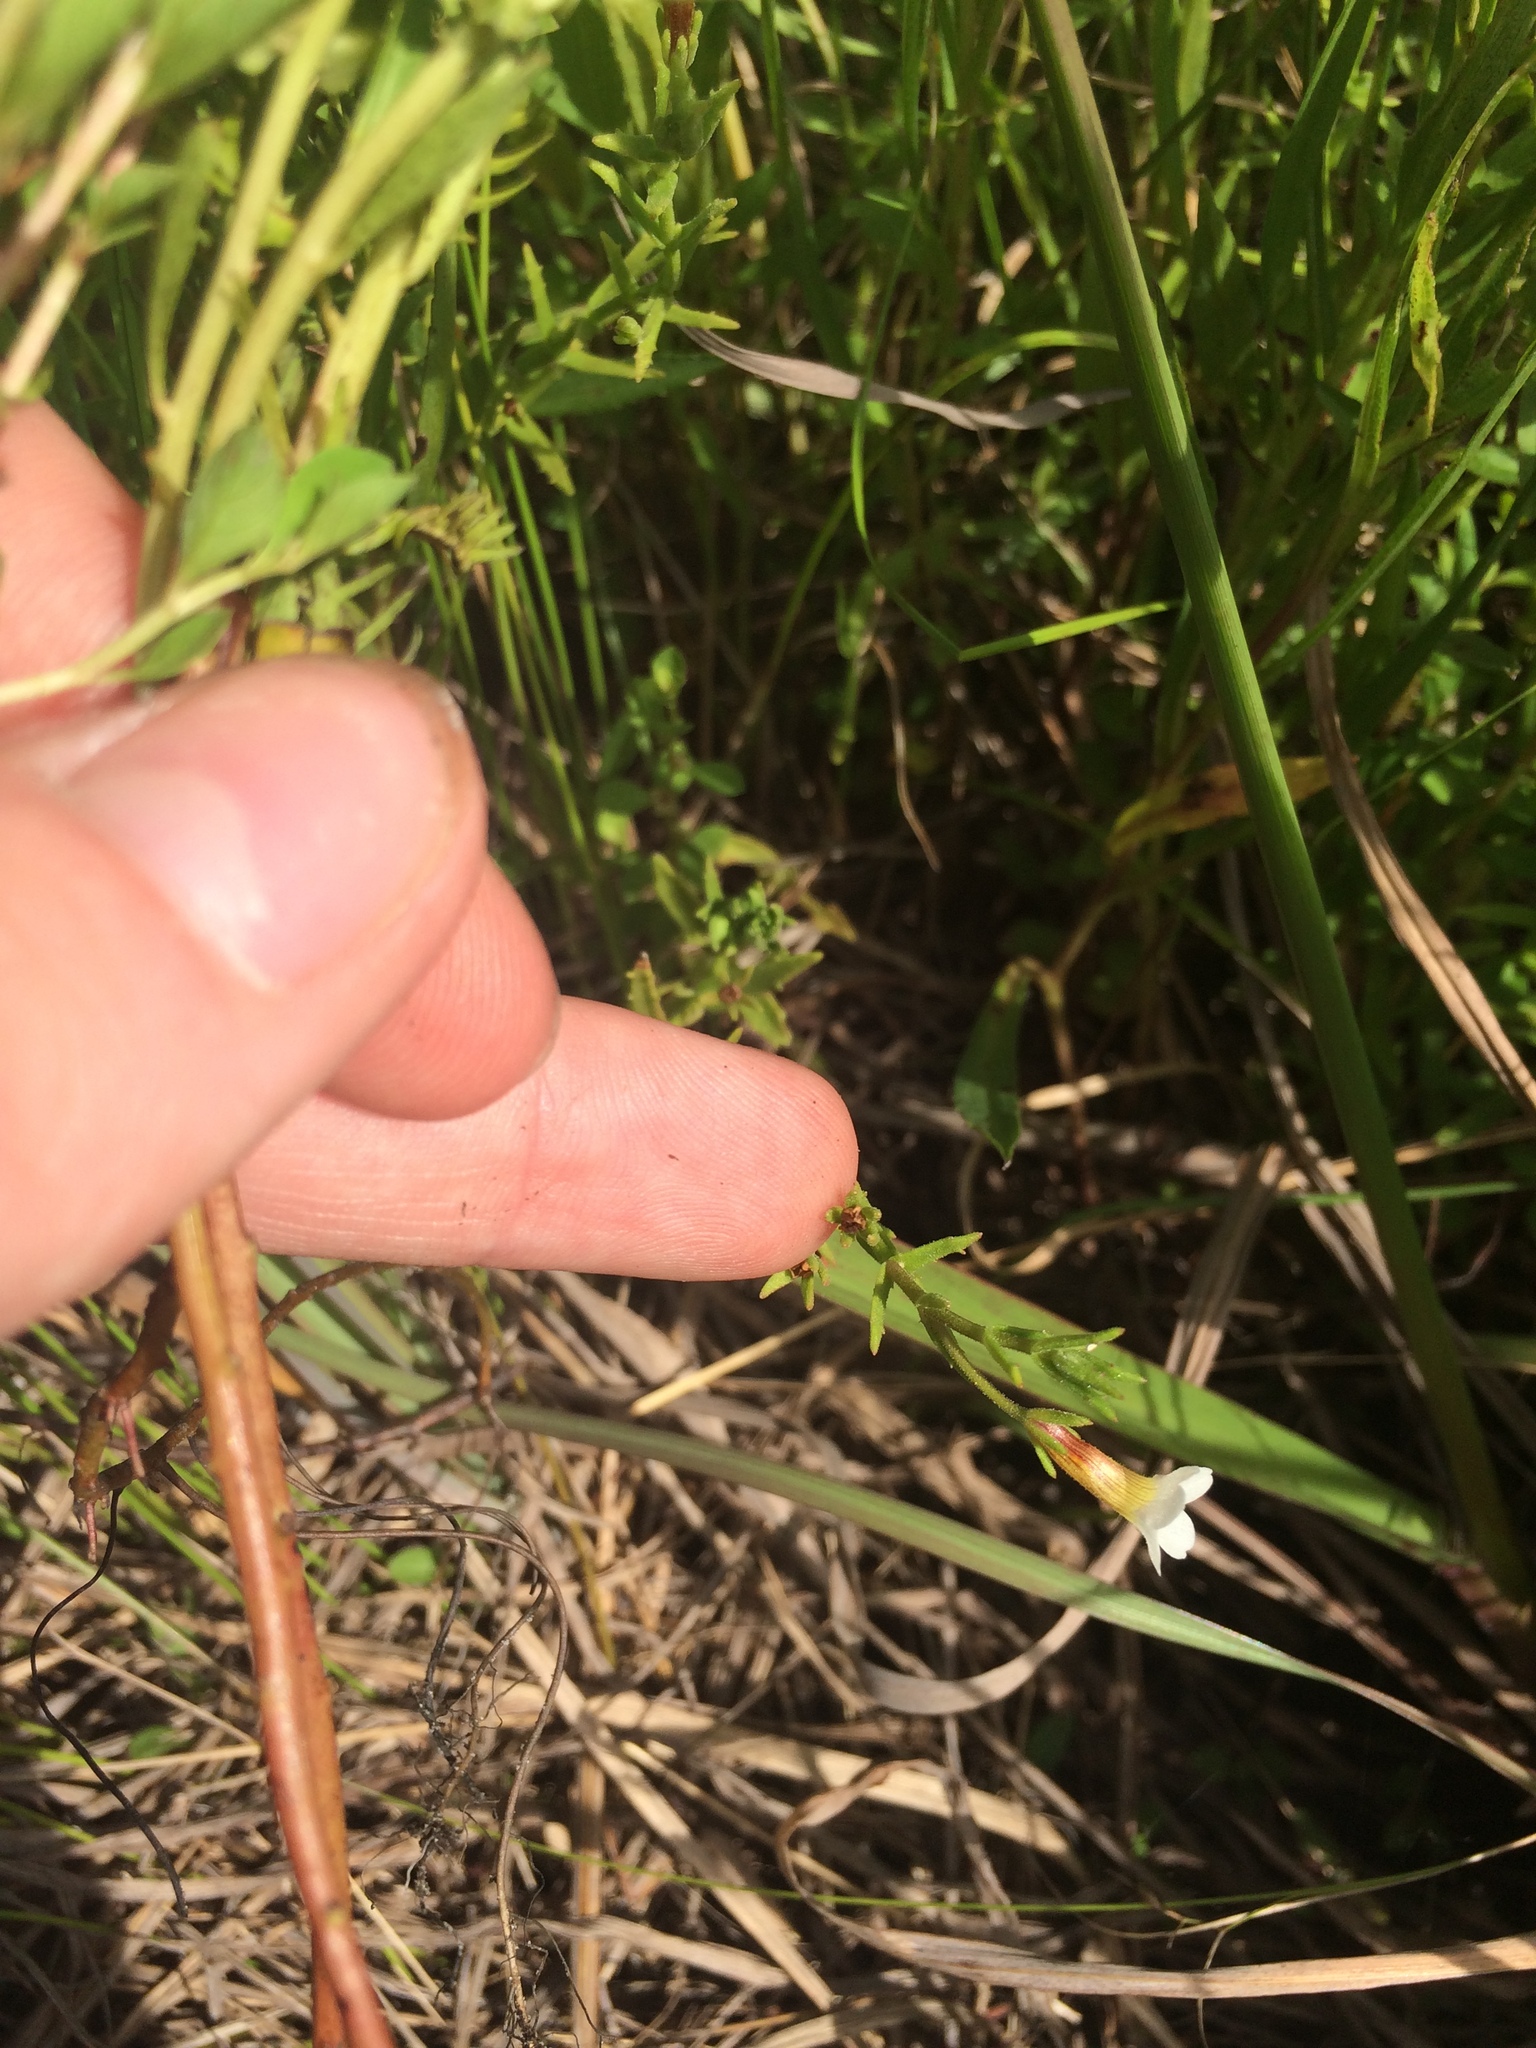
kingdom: Plantae
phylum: Tracheophyta
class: Magnoliopsida
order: Lamiales
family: Plantaginaceae
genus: Gratiola
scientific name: Gratiola ramosa
